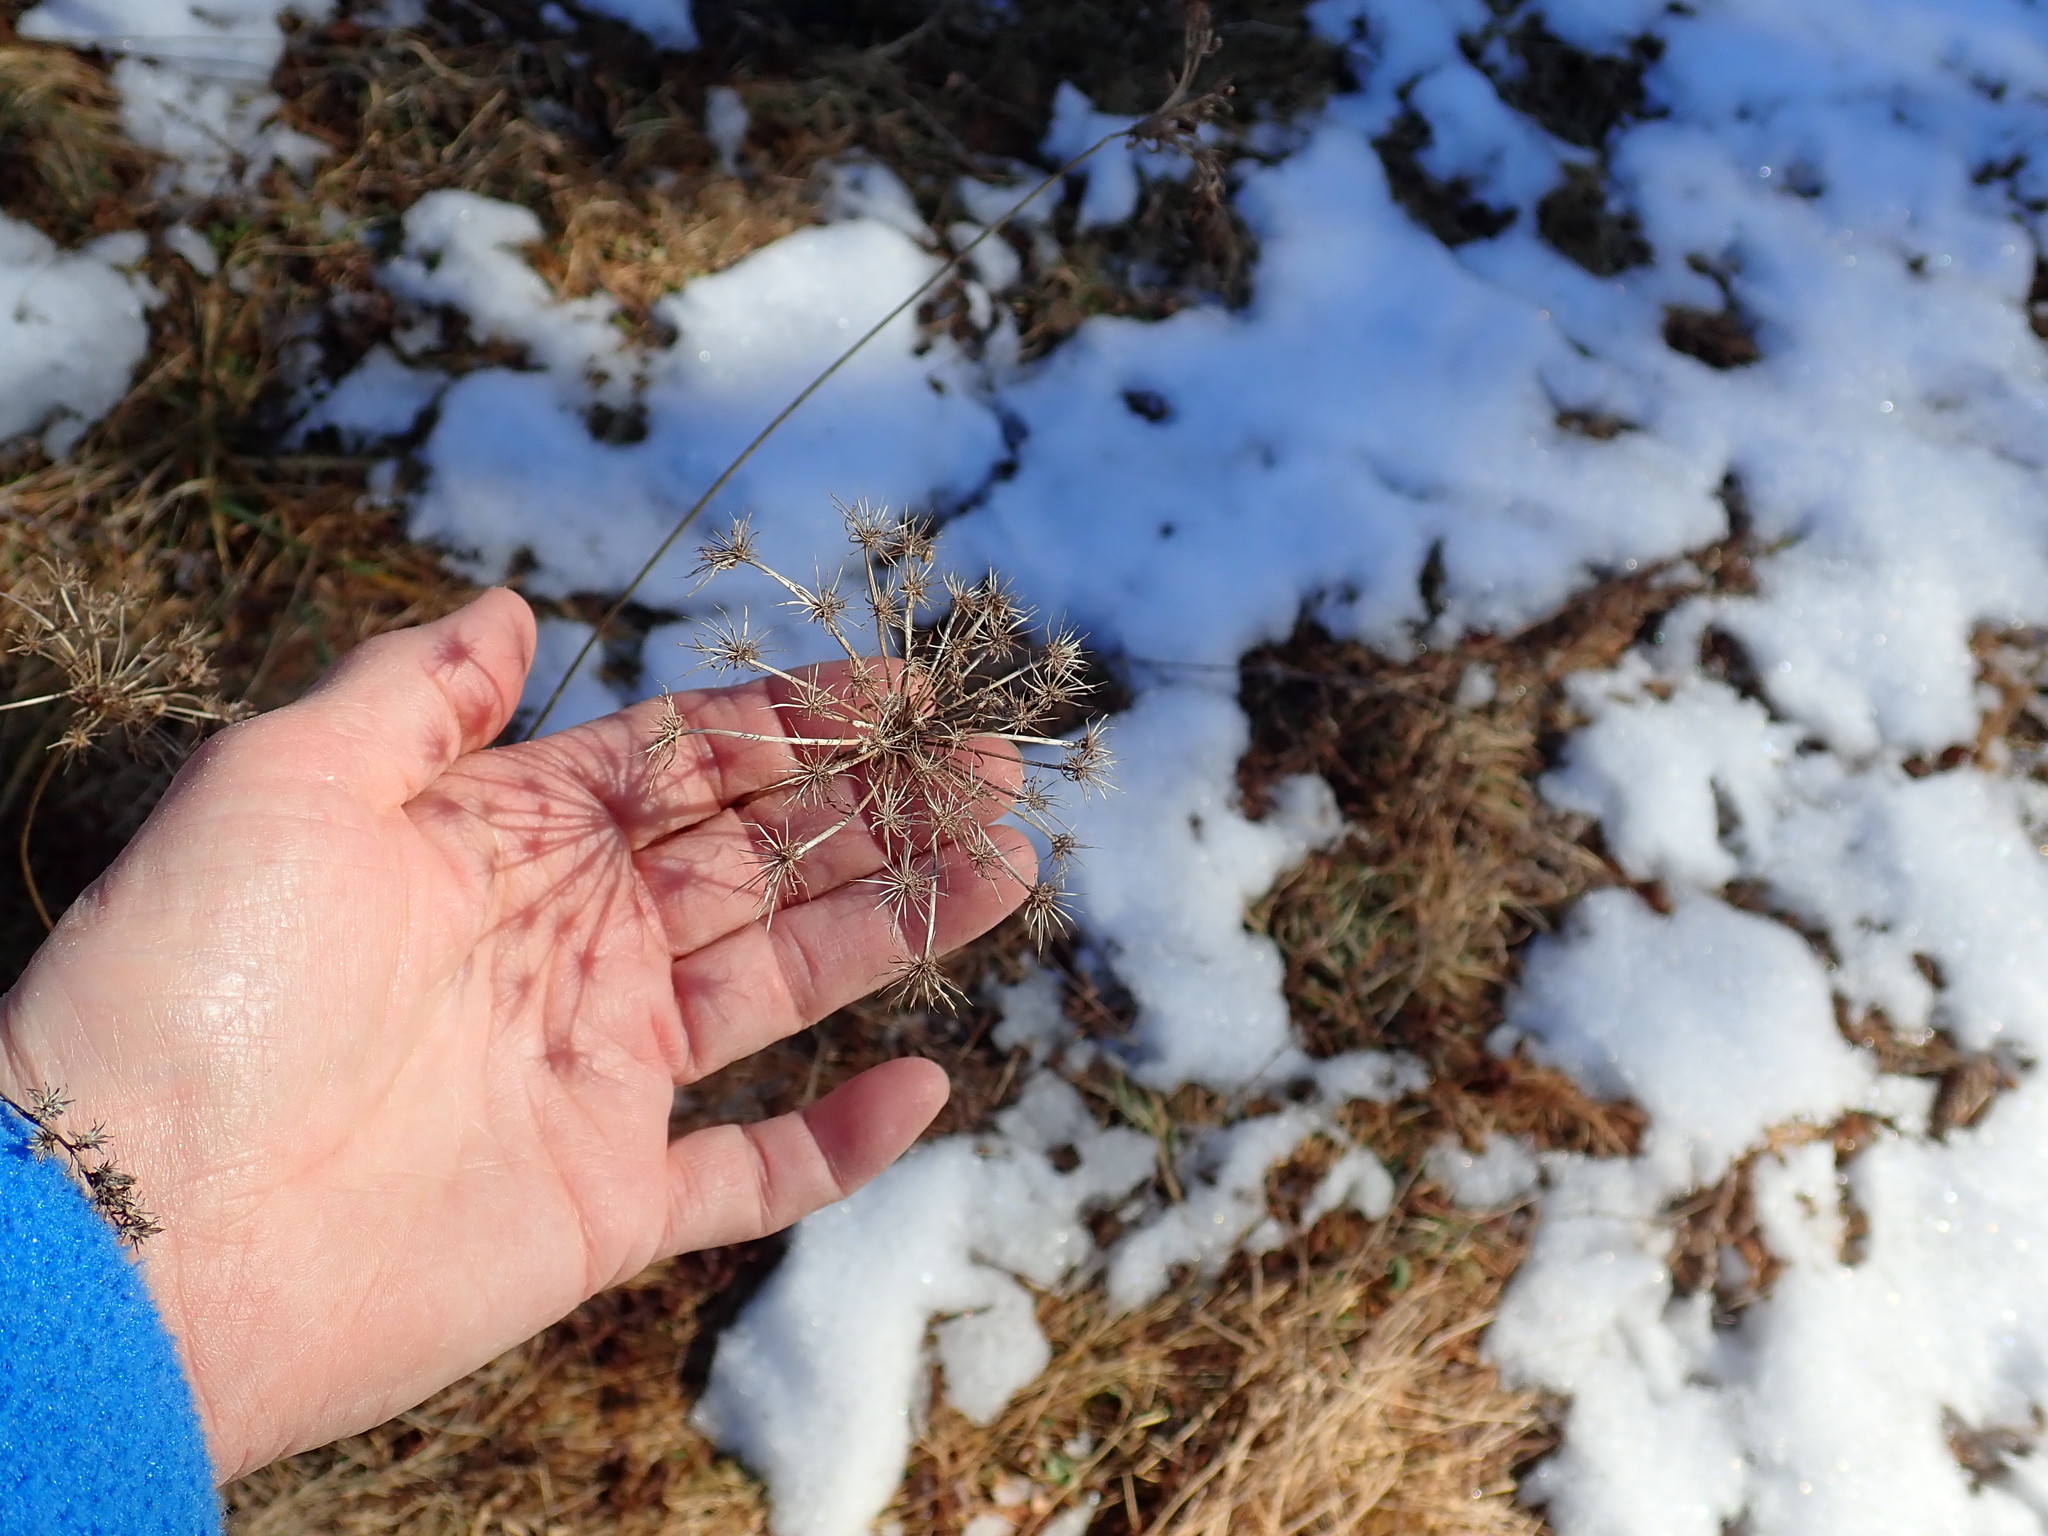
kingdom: Plantae
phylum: Tracheophyta
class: Magnoliopsida
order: Apiales
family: Apiaceae
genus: Daucus
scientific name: Daucus carota
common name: Wild carrot
